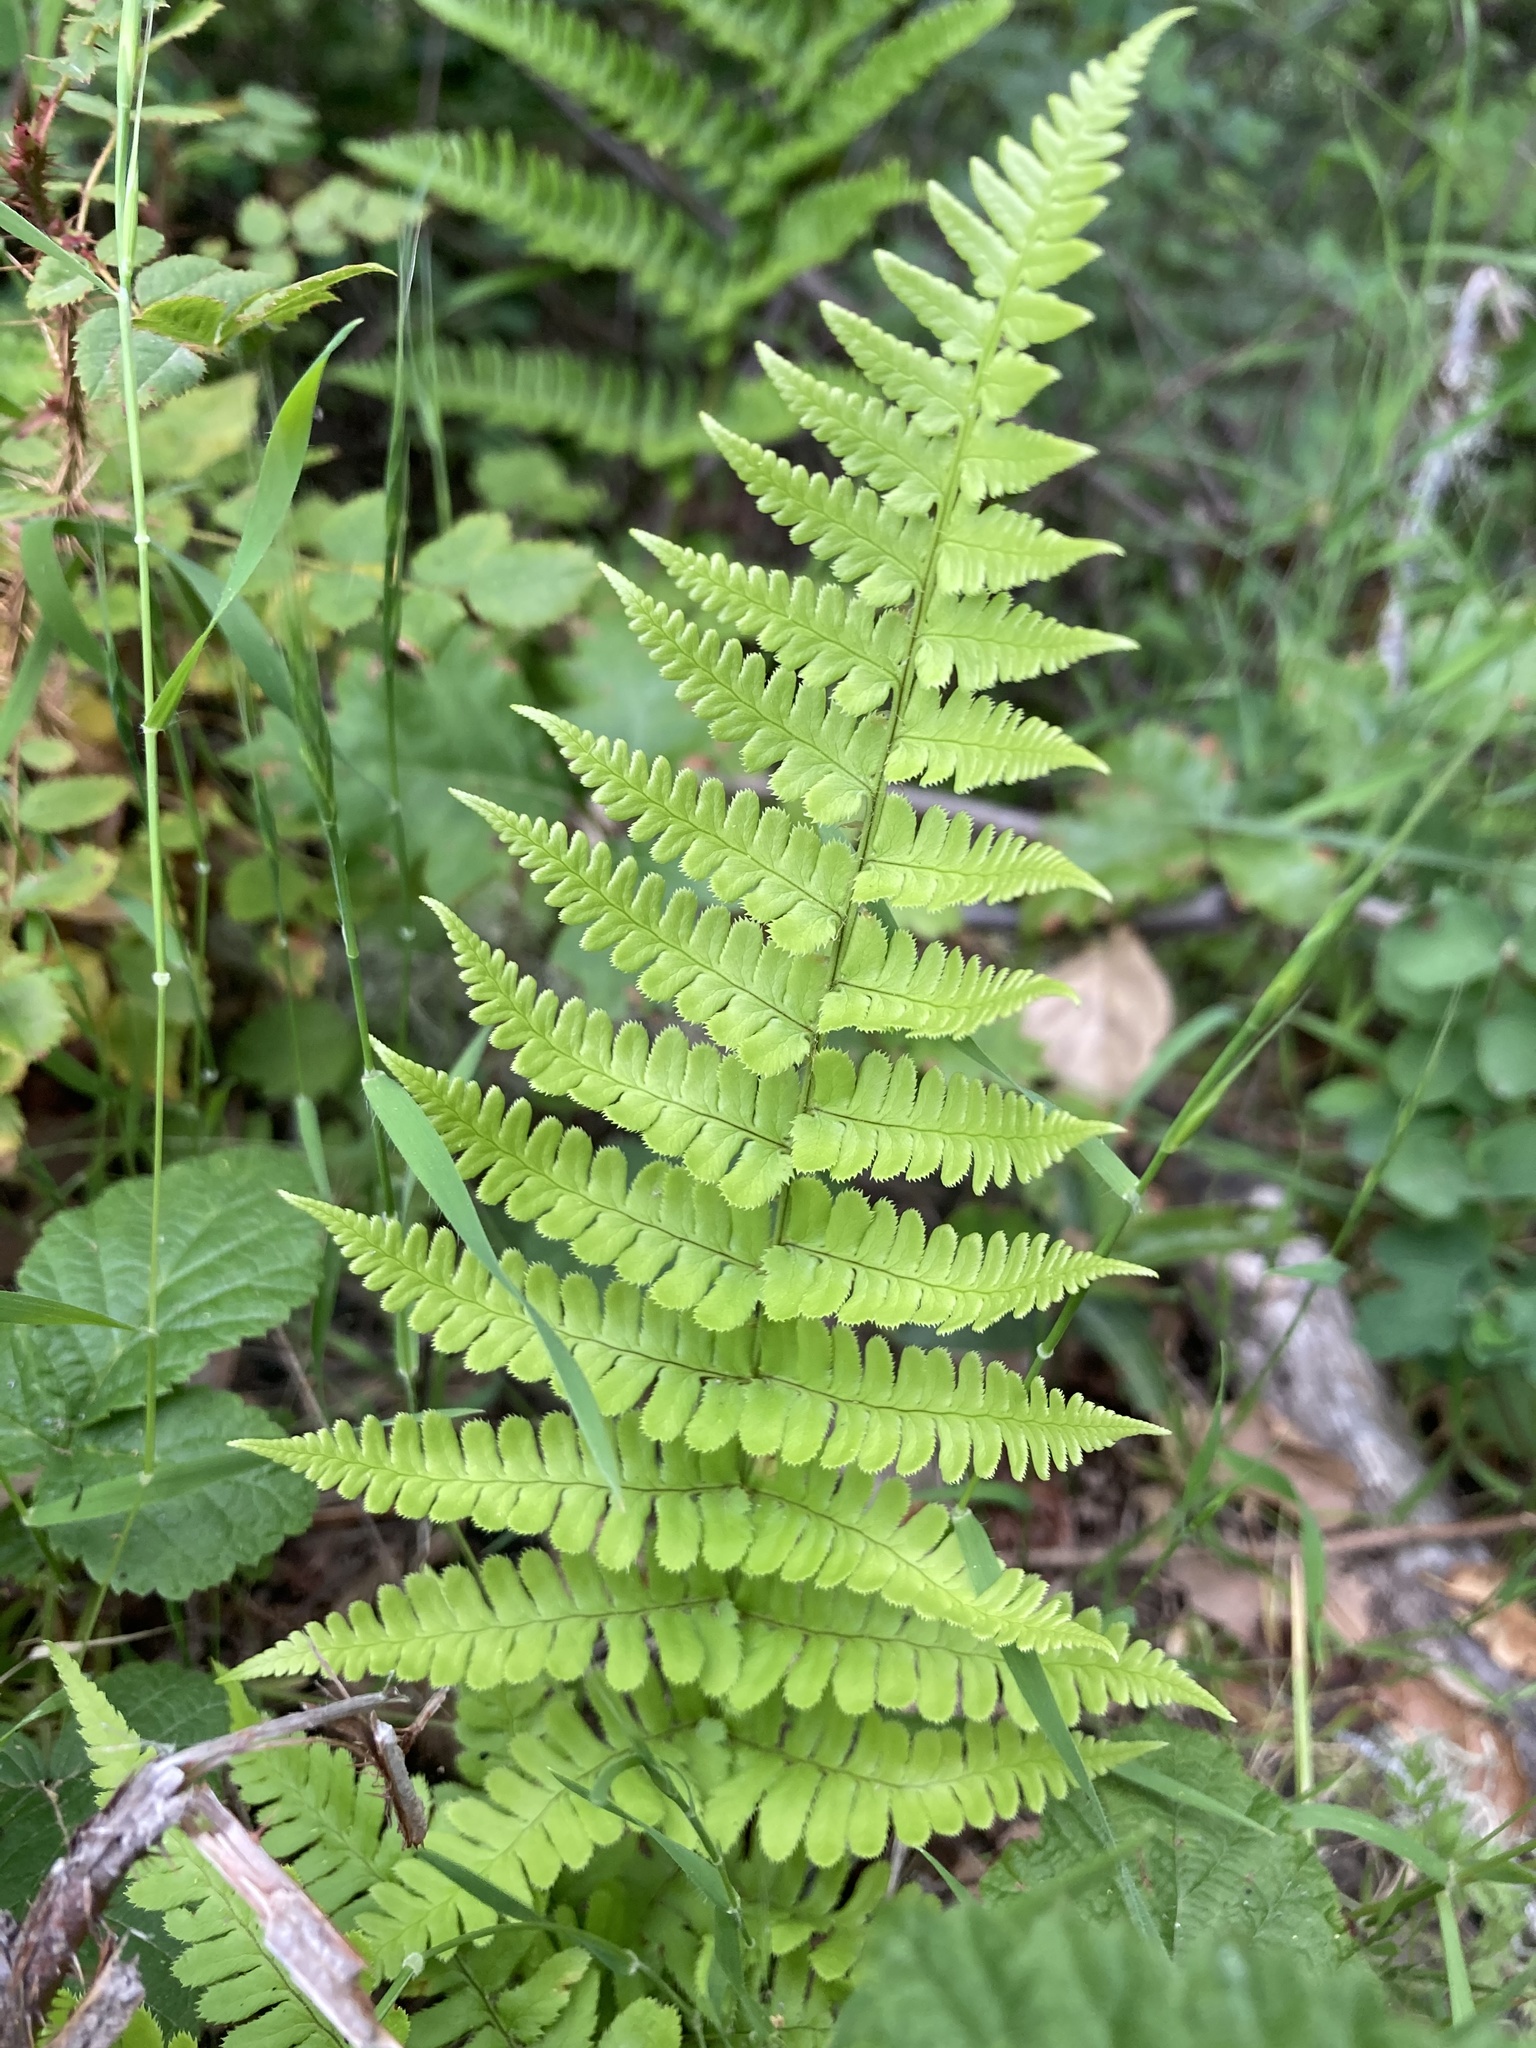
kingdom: Plantae
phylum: Tracheophyta
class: Polypodiopsida
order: Polypodiales
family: Dryopteridaceae
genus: Dryopteris
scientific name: Dryopteris arguta
